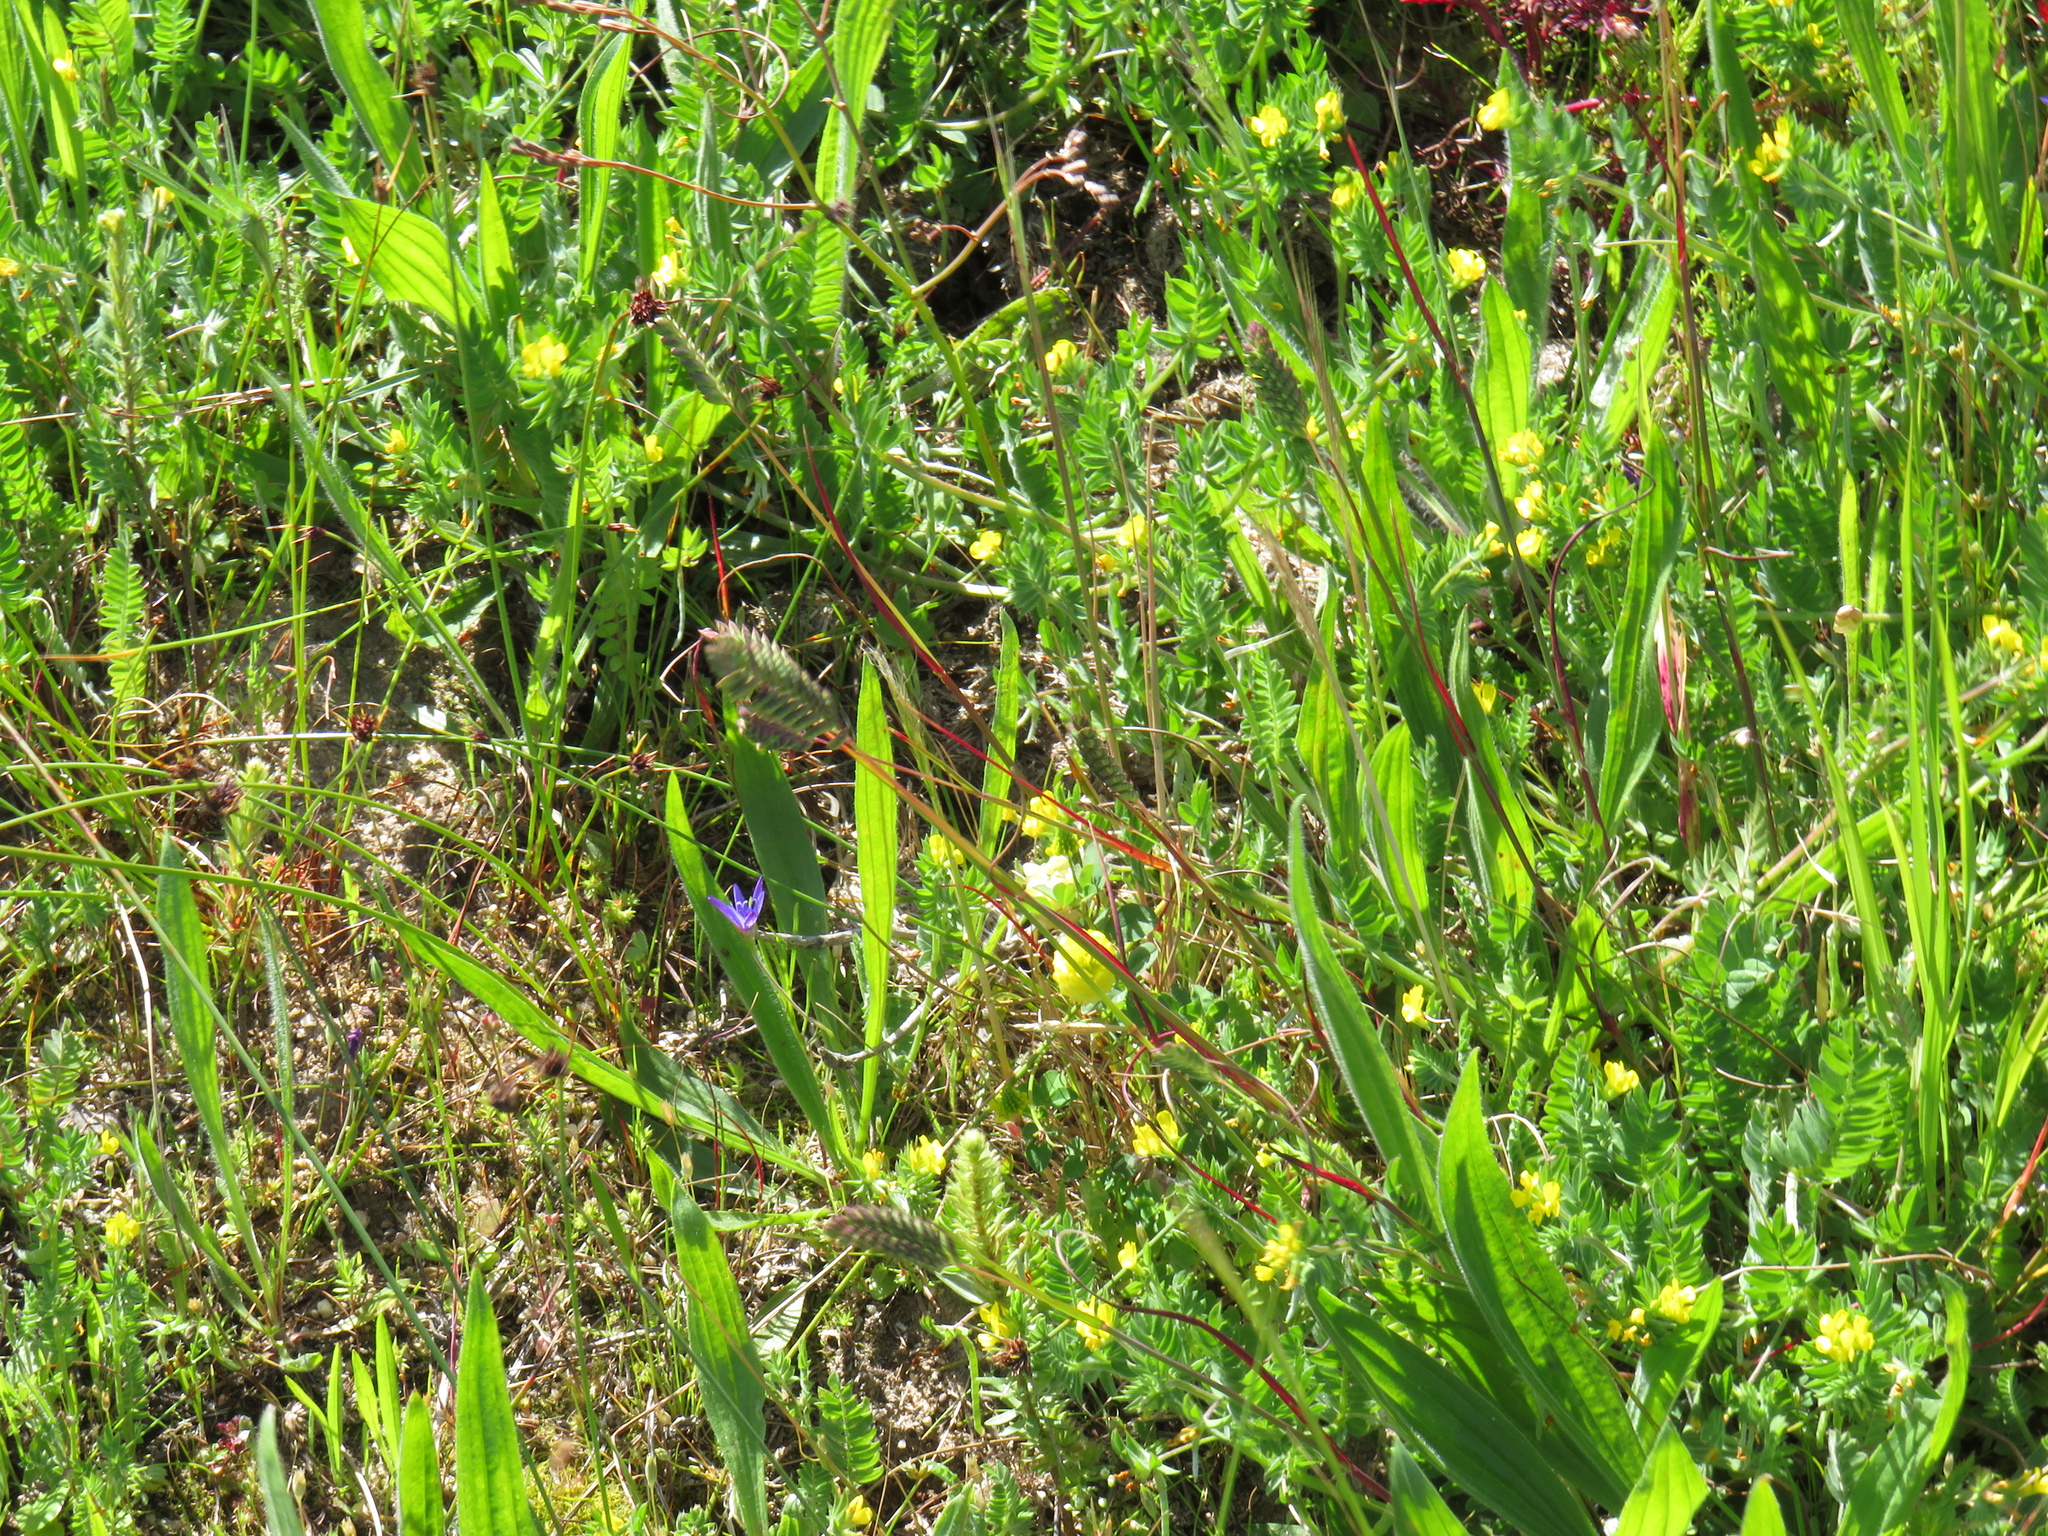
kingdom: Plantae
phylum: Tracheophyta
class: Liliopsida
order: Poales
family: Poaceae
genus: Tribolium
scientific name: Tribolium uniolae
